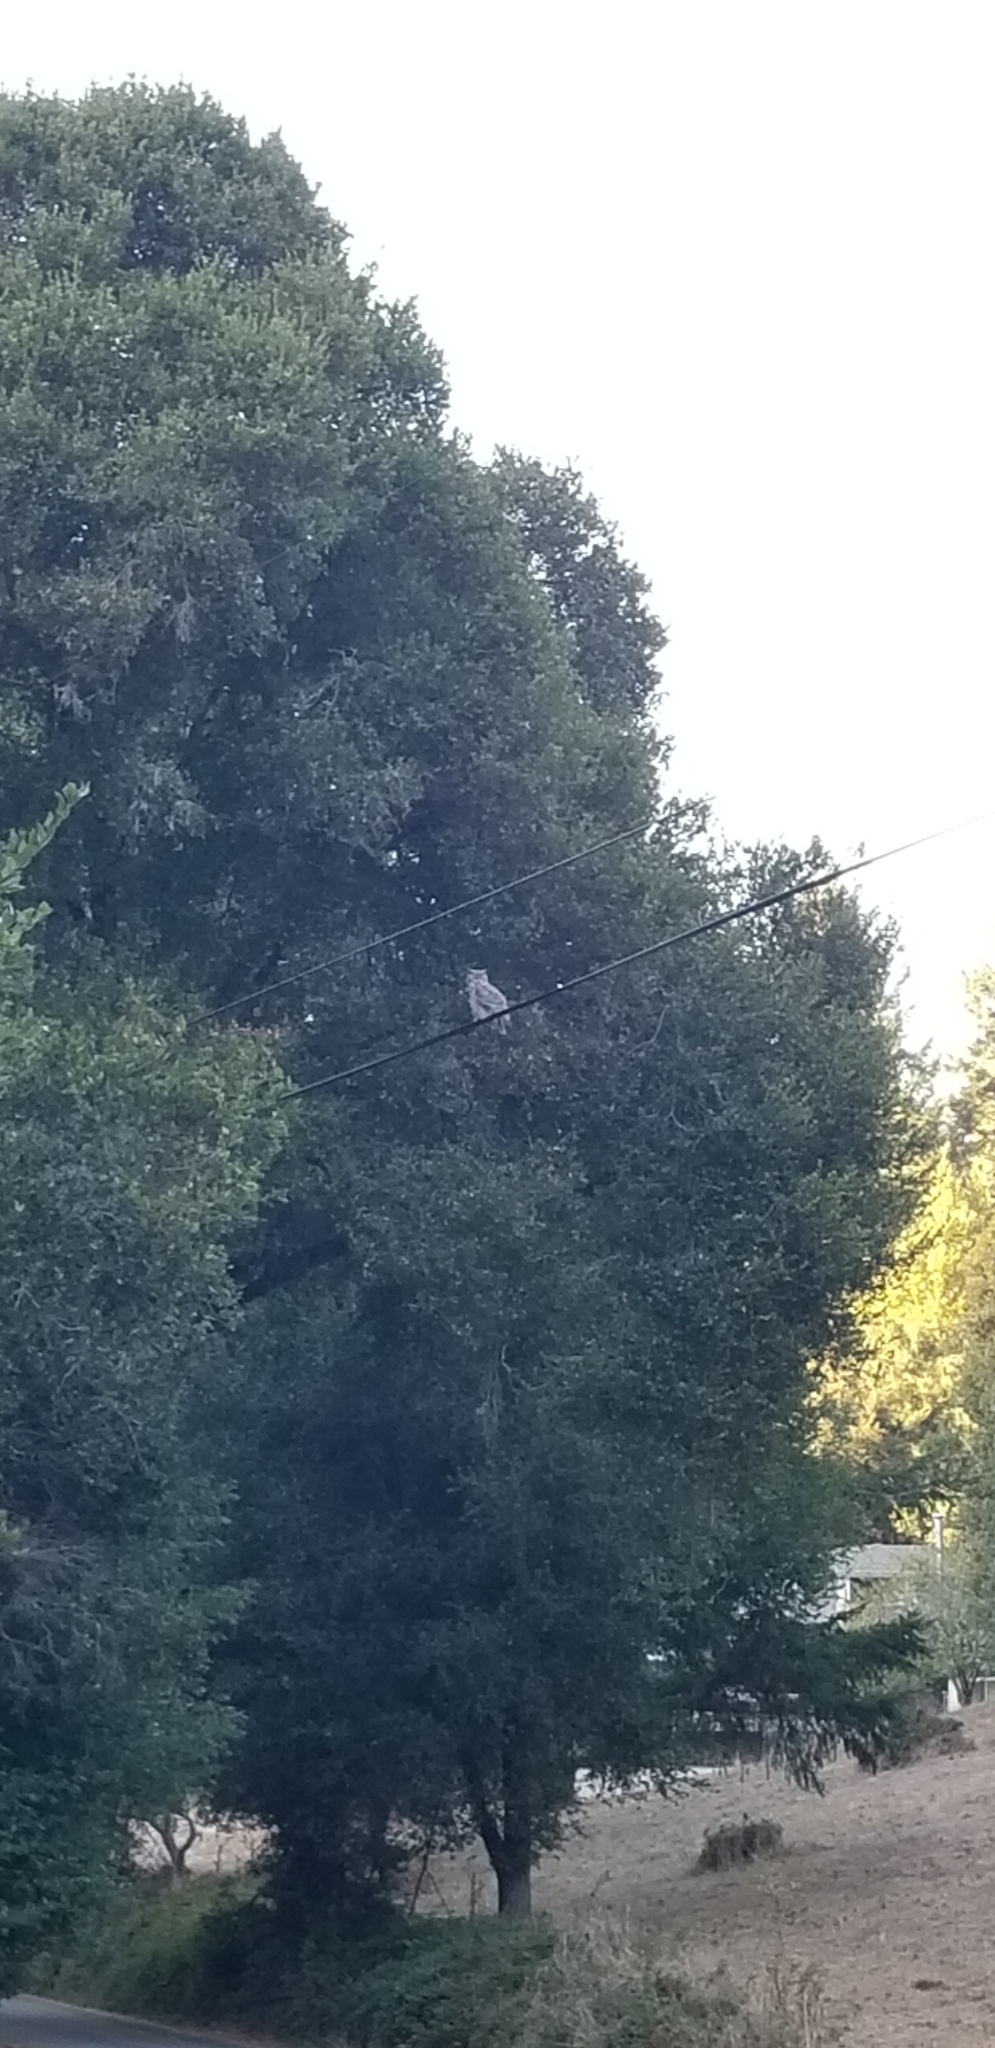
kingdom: Animalia
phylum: Chordata
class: Aves
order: Strigiformes
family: Strigidae
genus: Bubo
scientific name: Bubo virginianus
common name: Great horned owl
